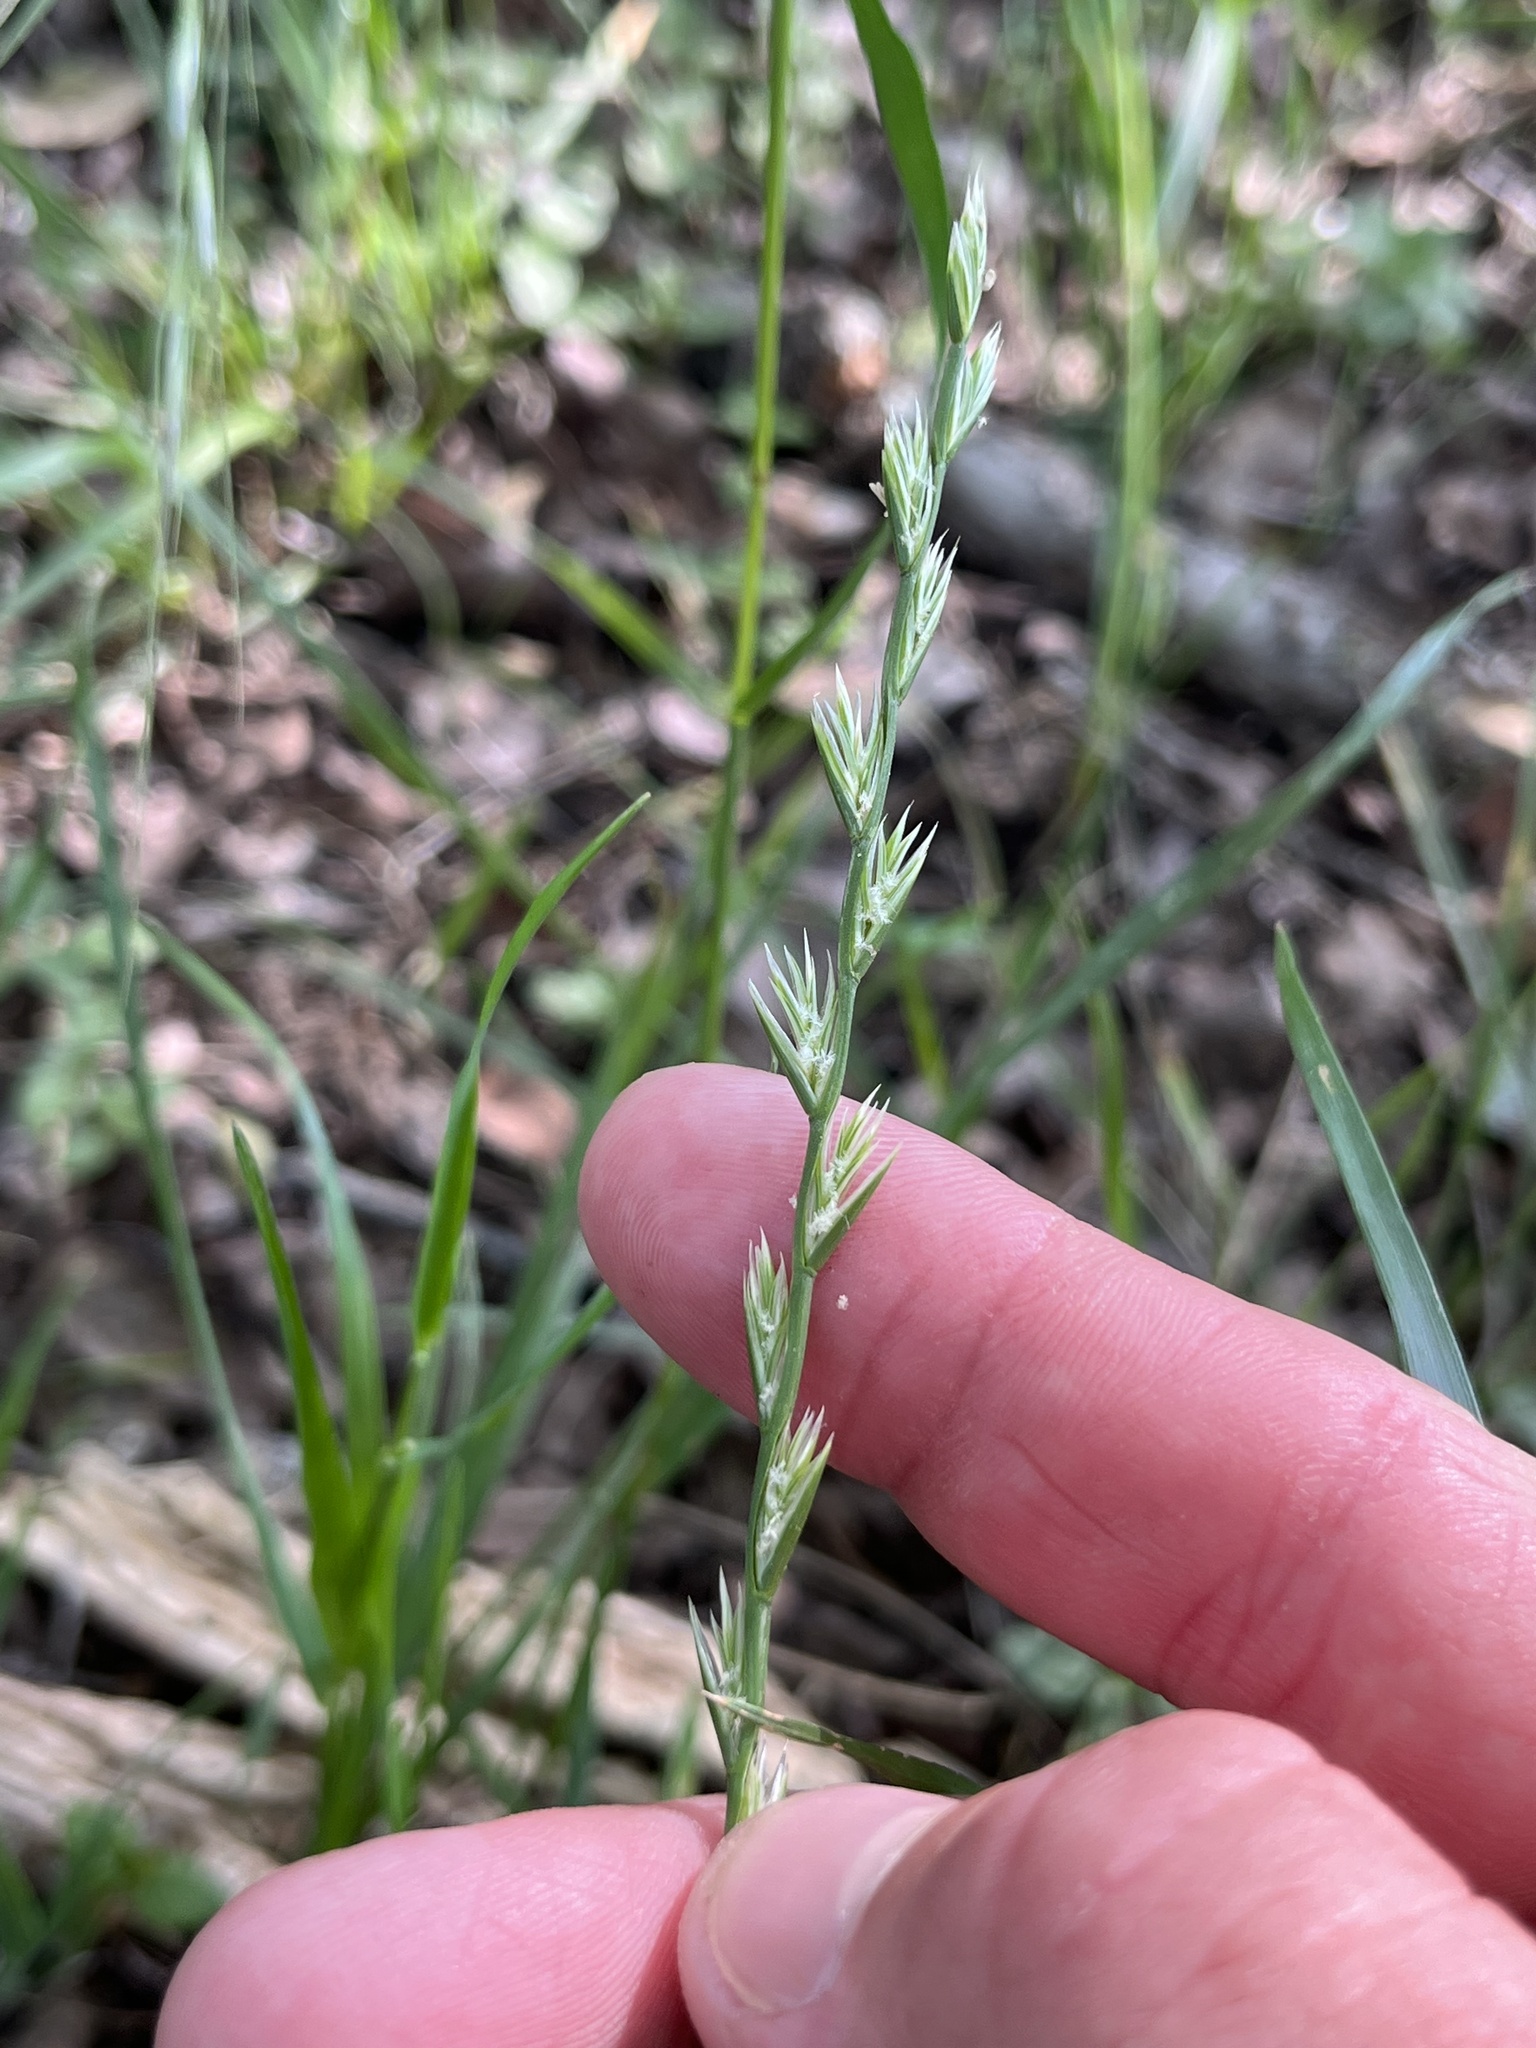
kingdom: Plantae
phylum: Tracheophyta
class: Liliopsida
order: Poales
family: Poaceae
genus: Lolium
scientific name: Lolium perenne
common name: Perennial ryegrass
